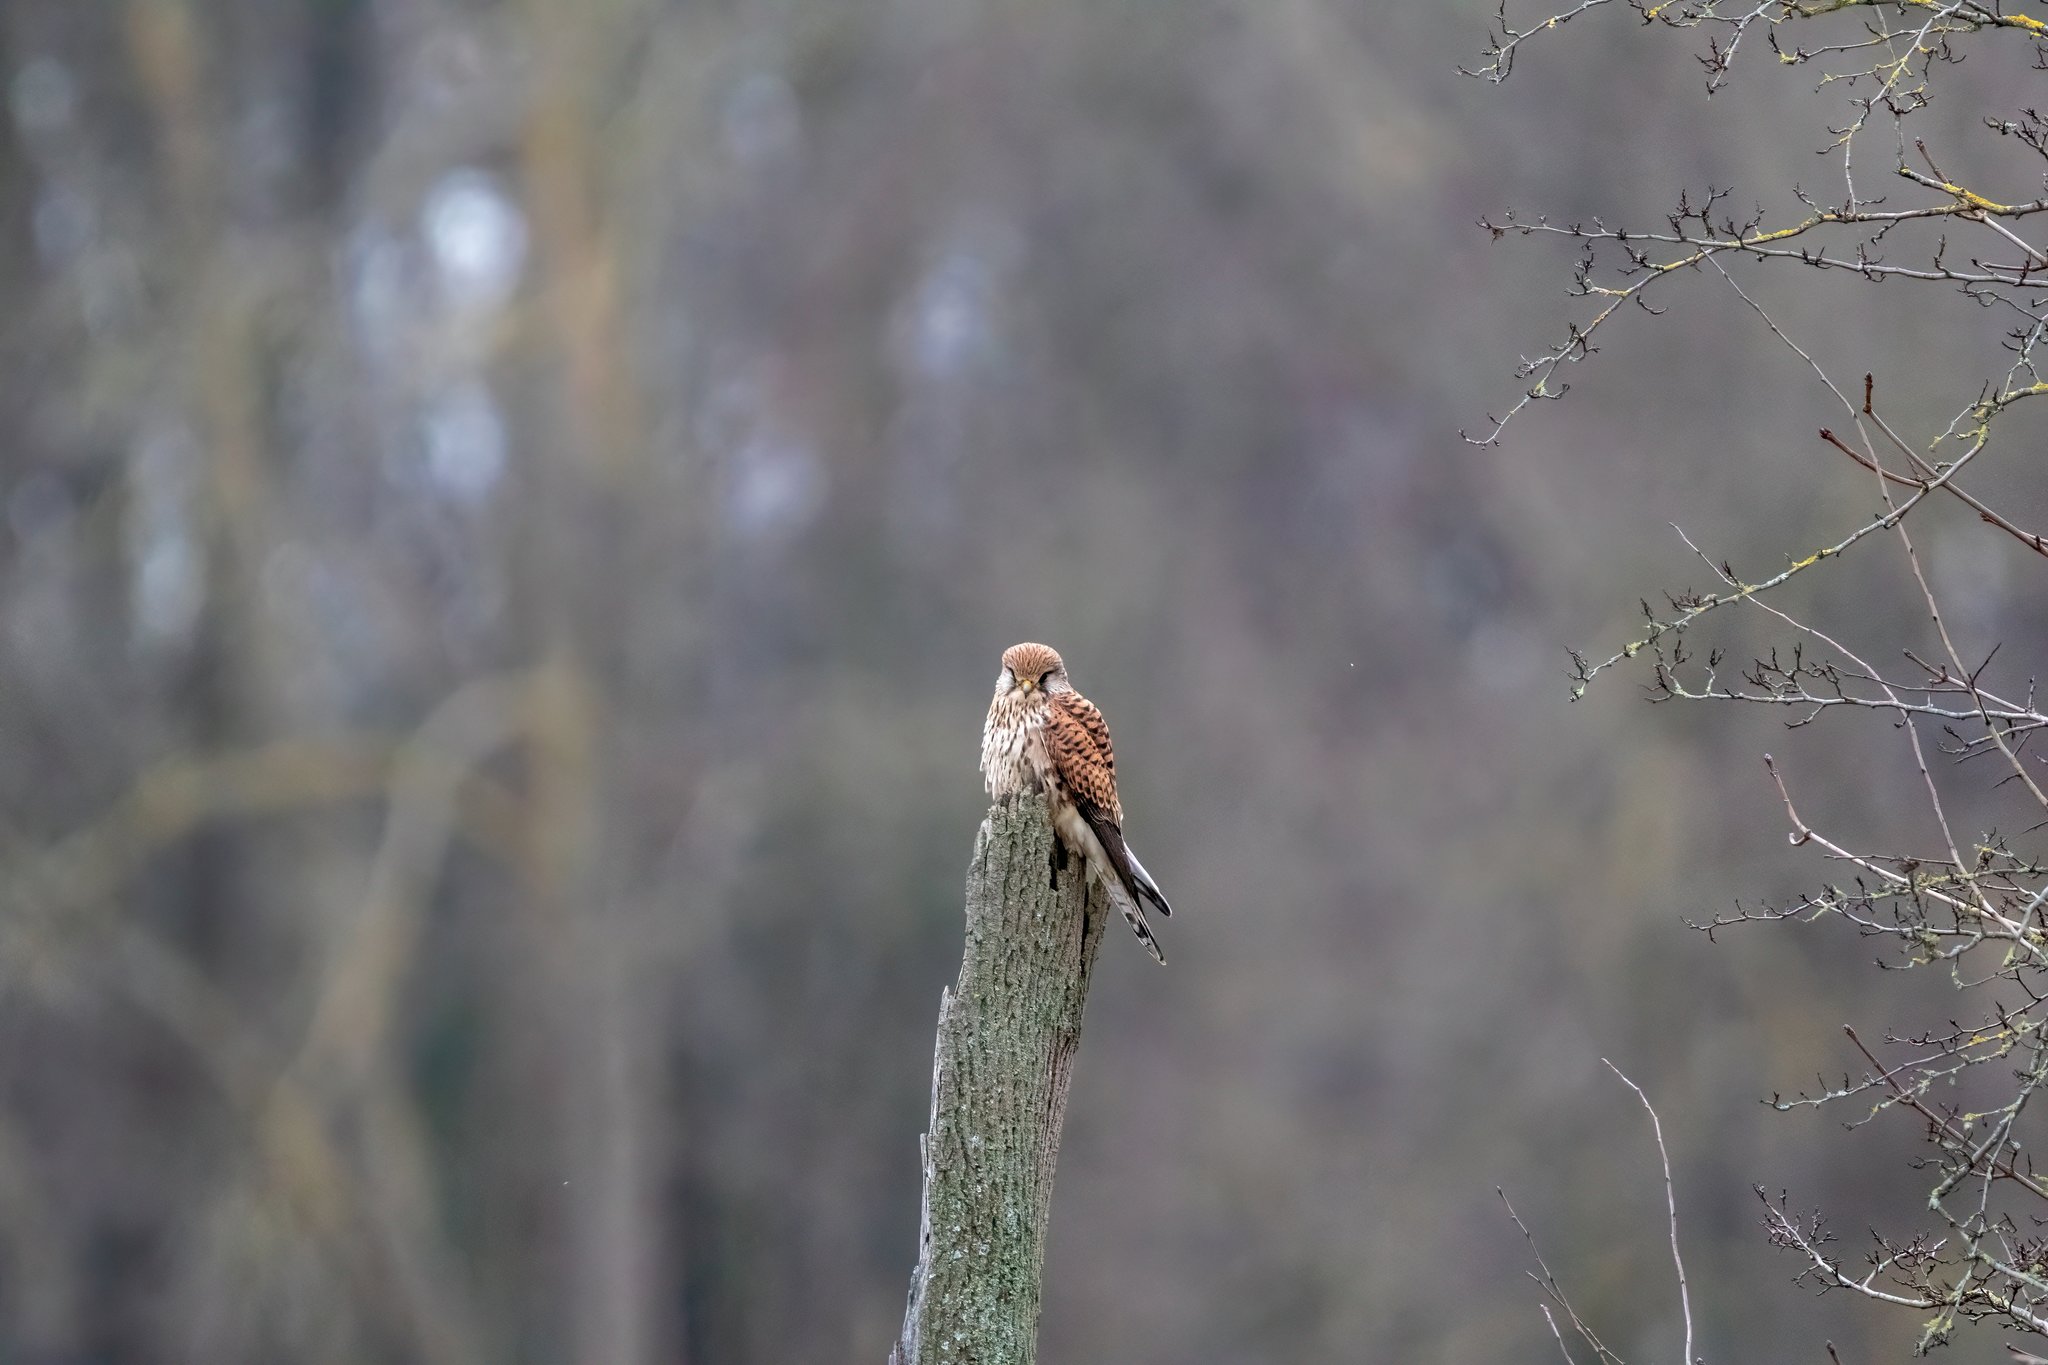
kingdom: Animalia
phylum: Chordata
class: Aves
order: Falconiformes
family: Falconidae
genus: Falco
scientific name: Falco tinnunculus
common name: Common kestrel
